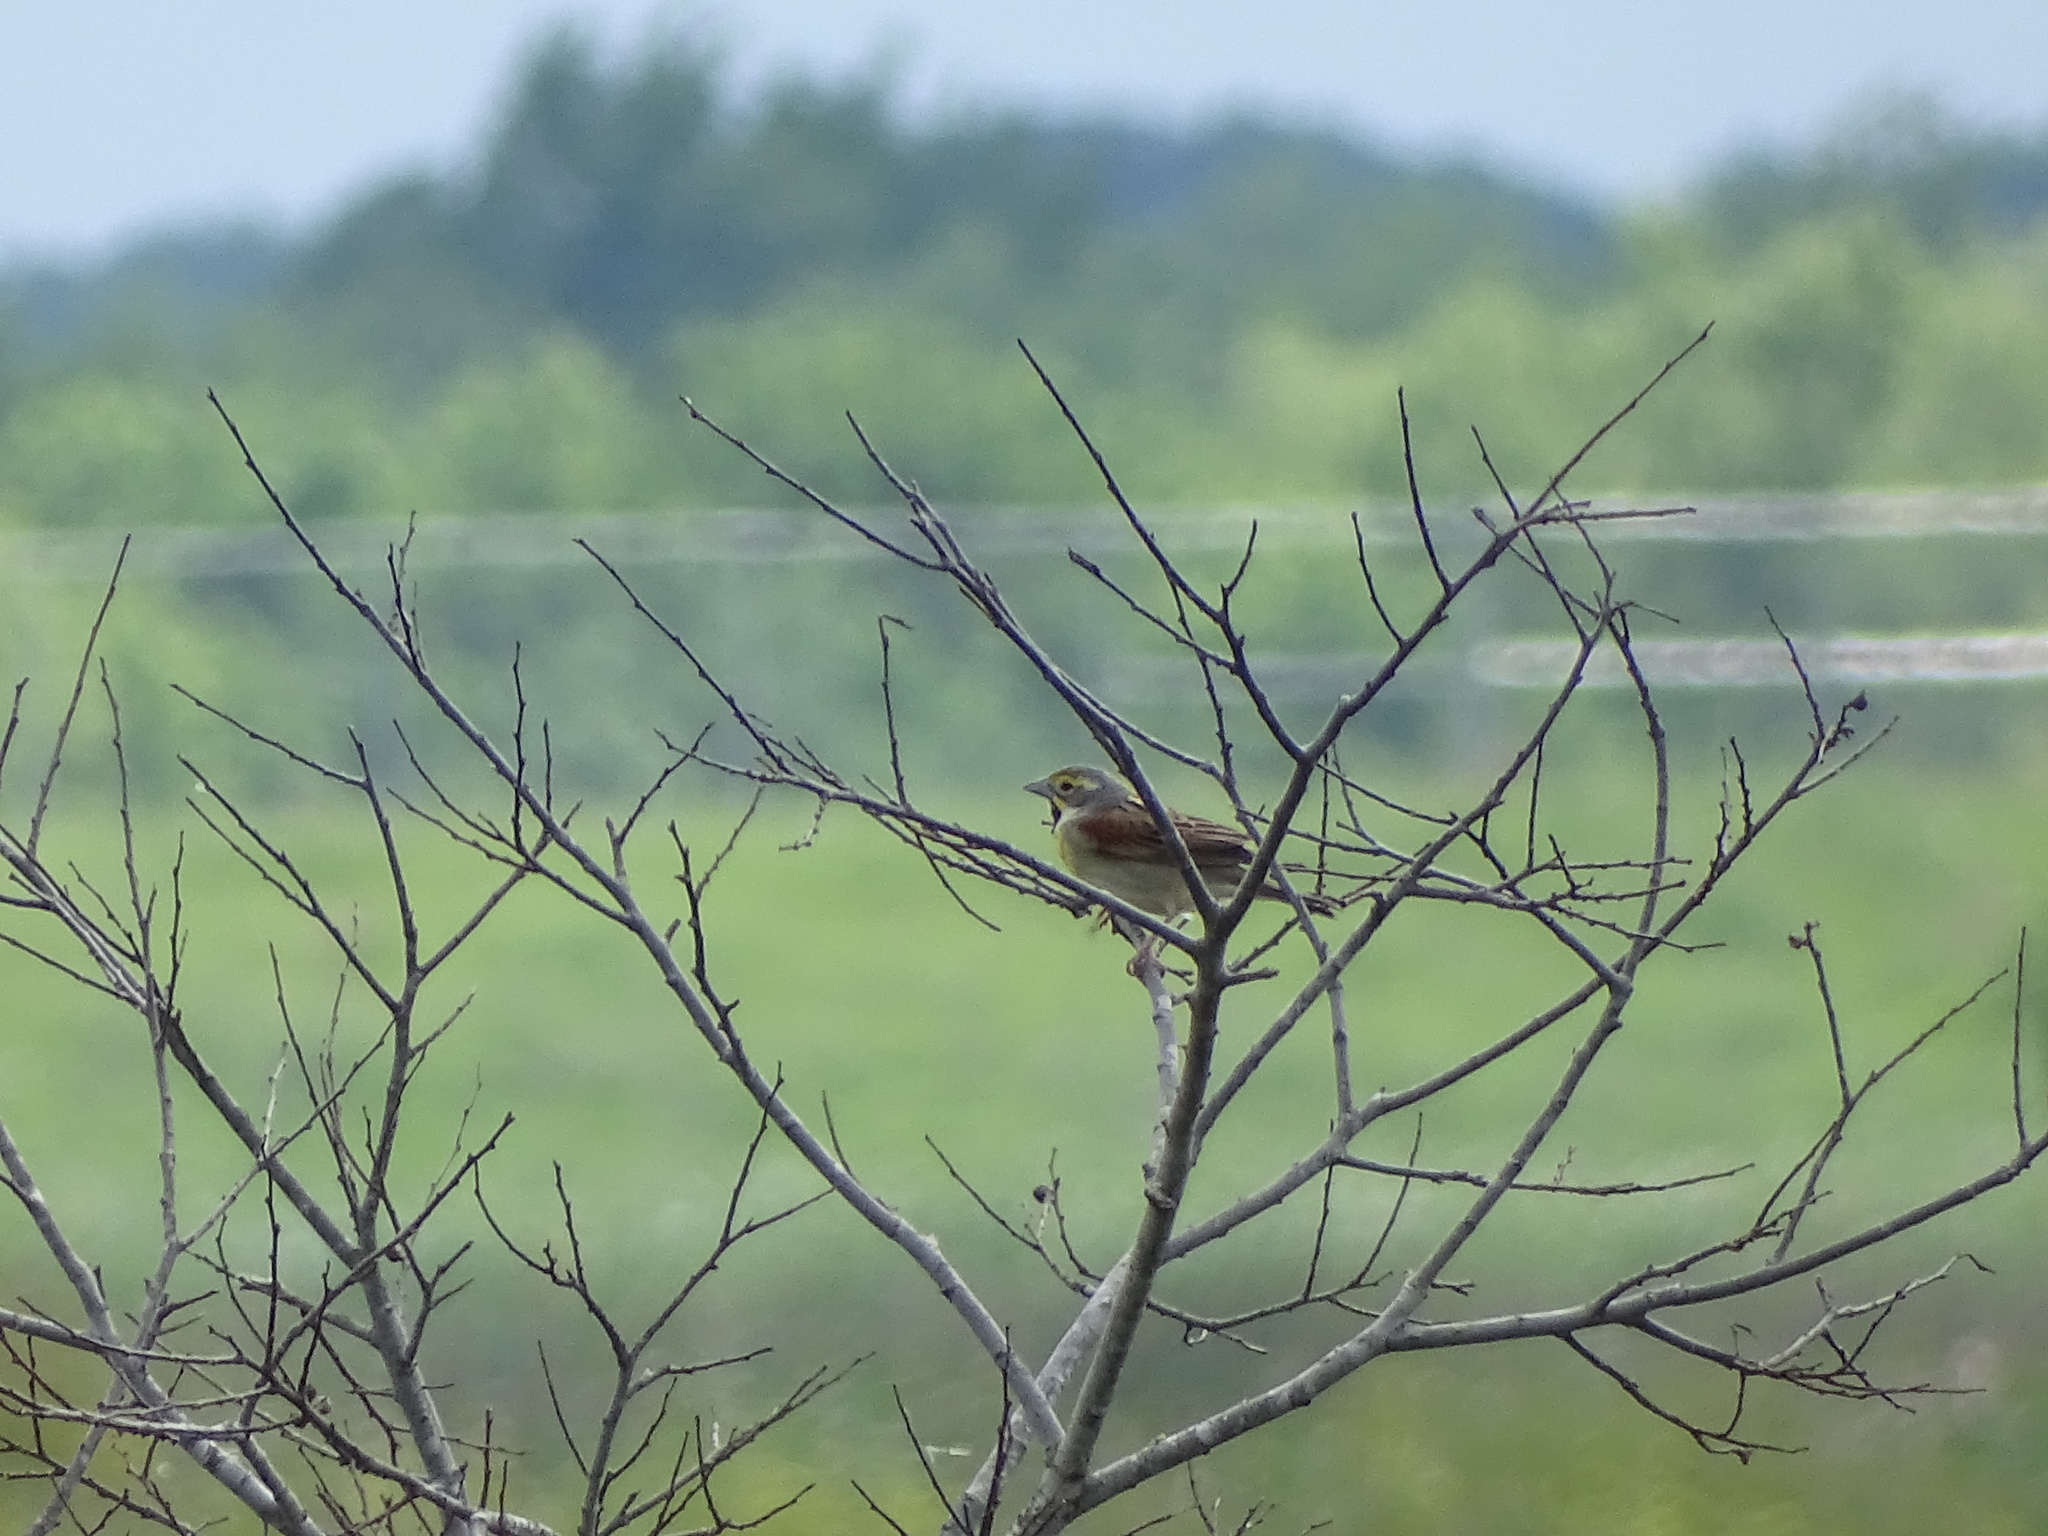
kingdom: Animalia
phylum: Chordata
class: Aves
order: Passeriformes
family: Cardinalidae
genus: Spiza
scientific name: Spiza americana
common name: Dickcissel
